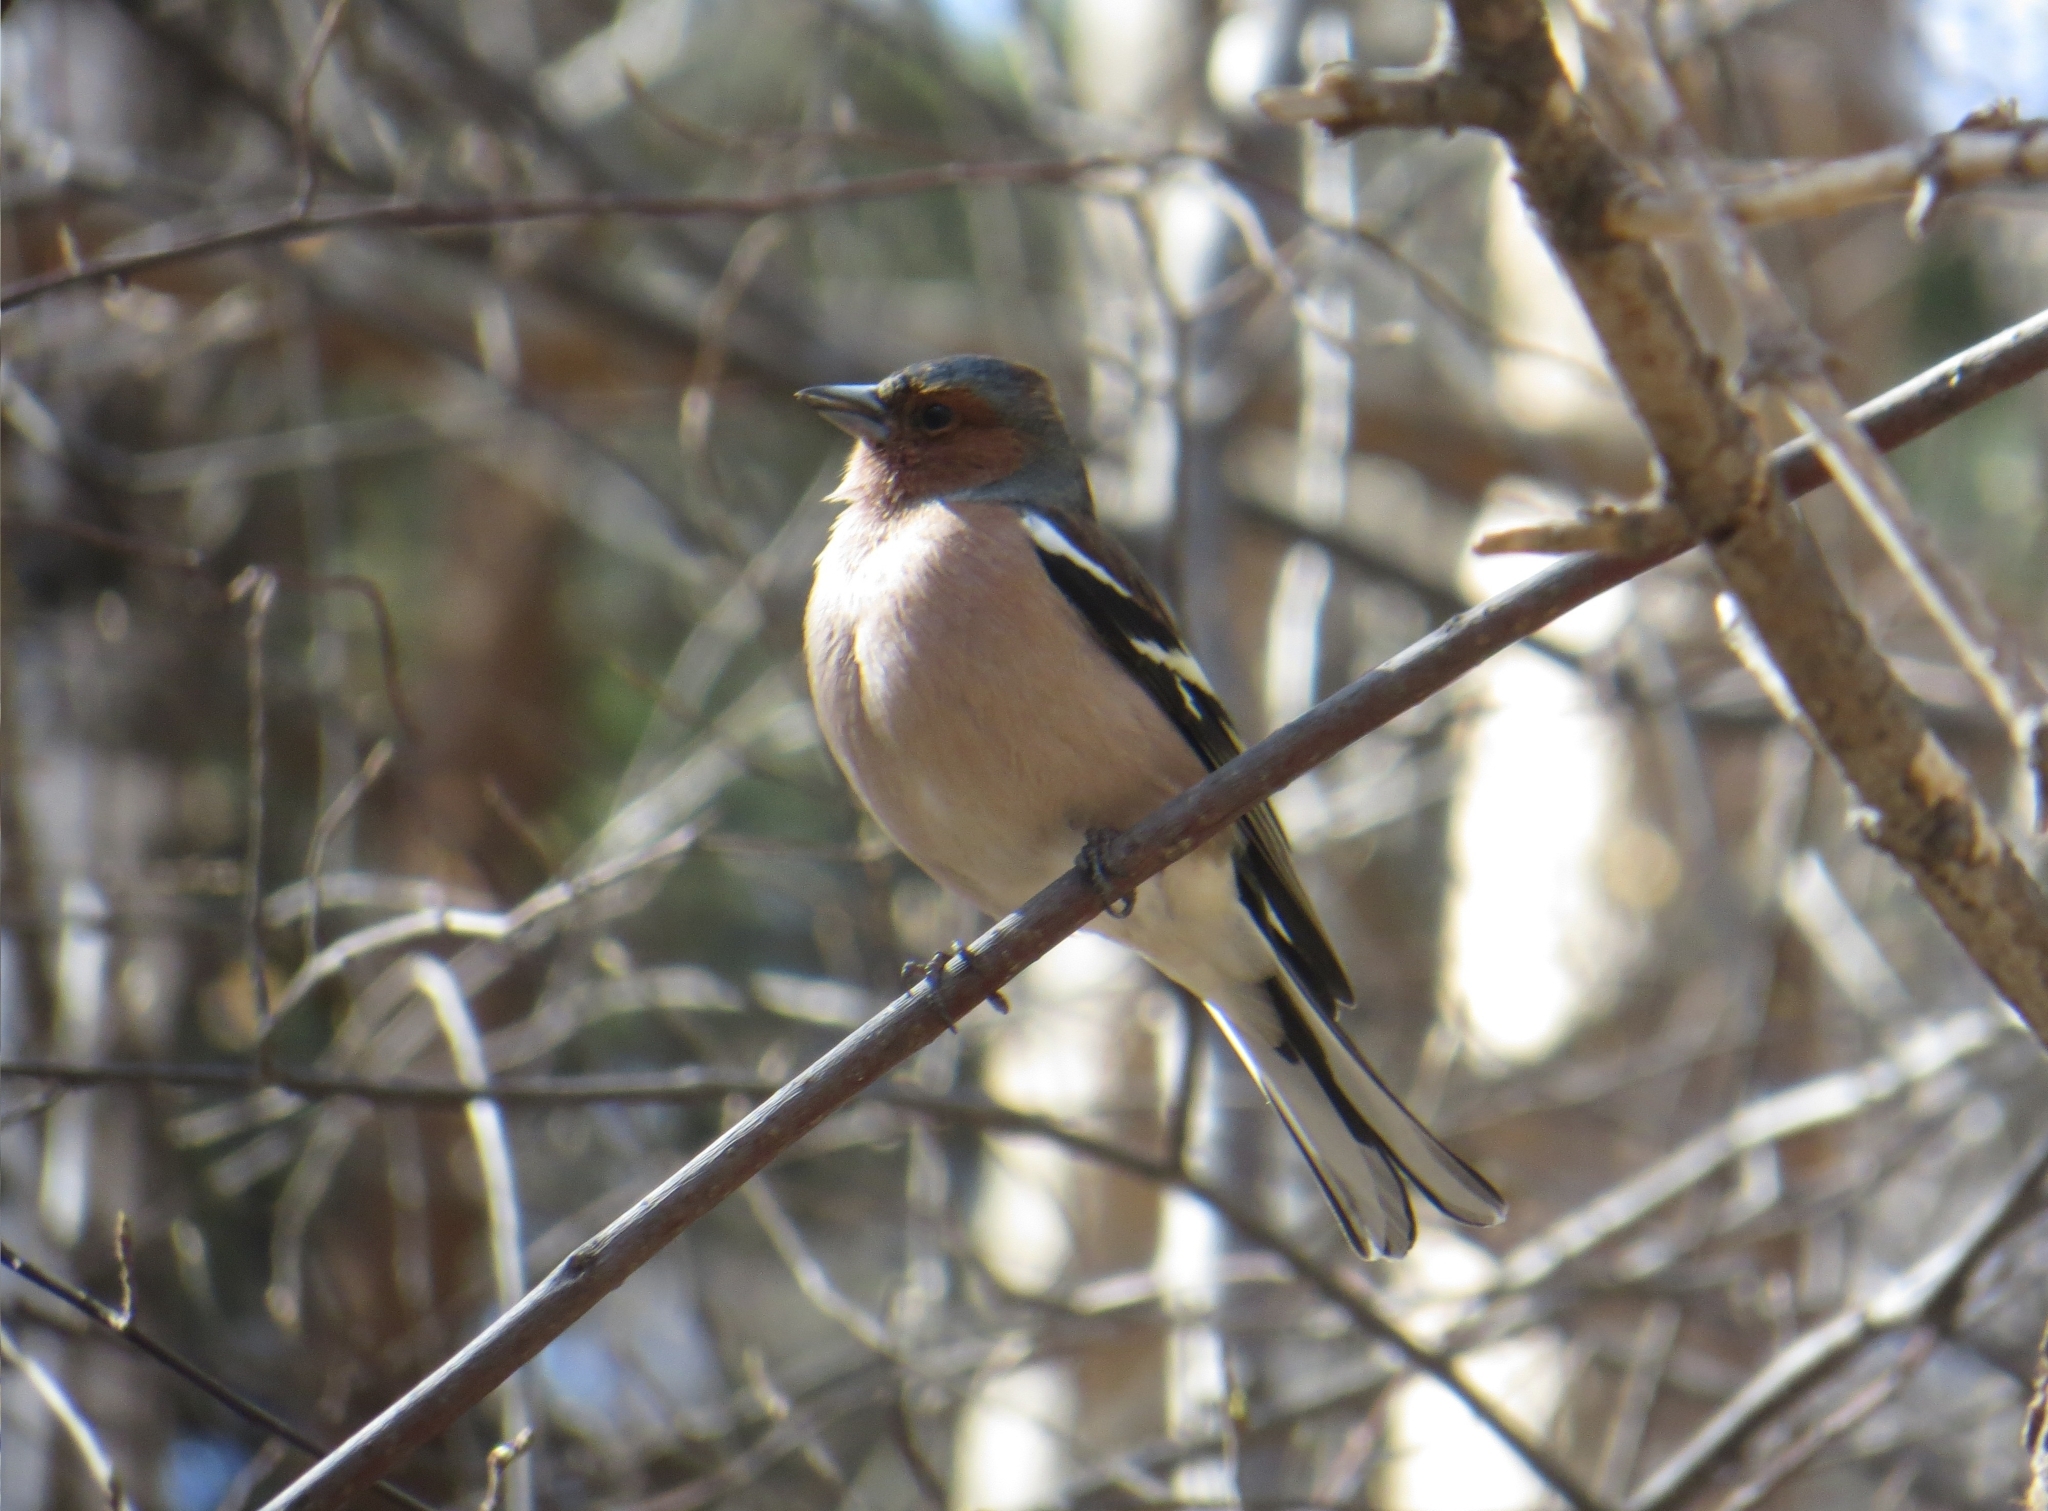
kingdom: Animalia
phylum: Chordata
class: Aves
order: Passeriformes
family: Fringillidae
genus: Fringilla
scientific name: Fringilla coelebs
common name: Common chaffinch
